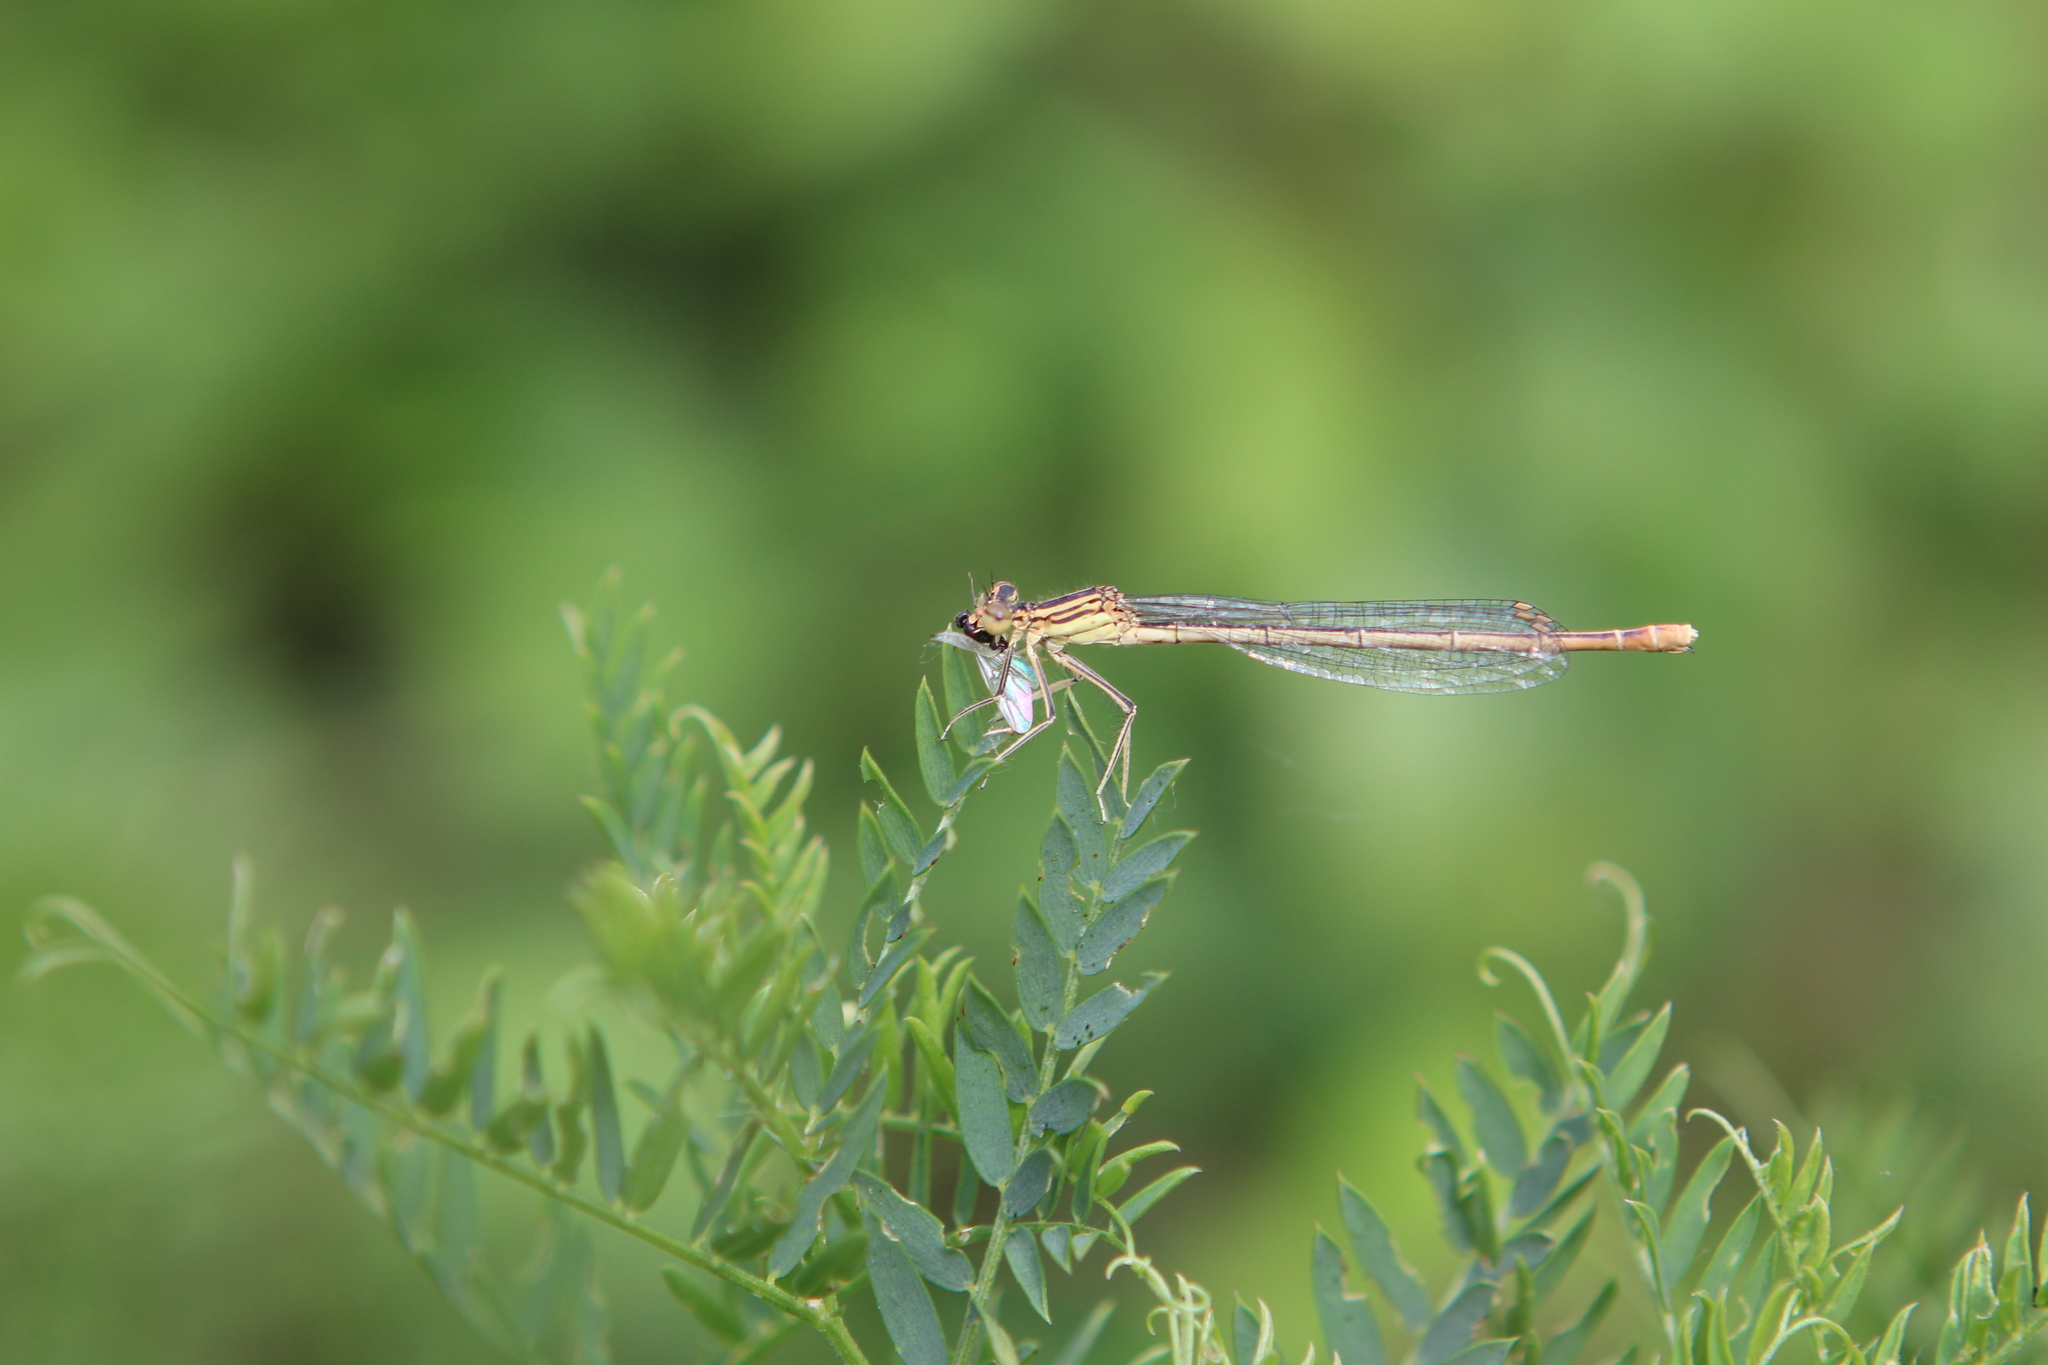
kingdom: Animalia
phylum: Arthropoda
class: Insecta
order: Odonata
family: Platycnemididae
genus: Platycnemis
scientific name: Platycnemis pennipes
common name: White-legged damselfly
